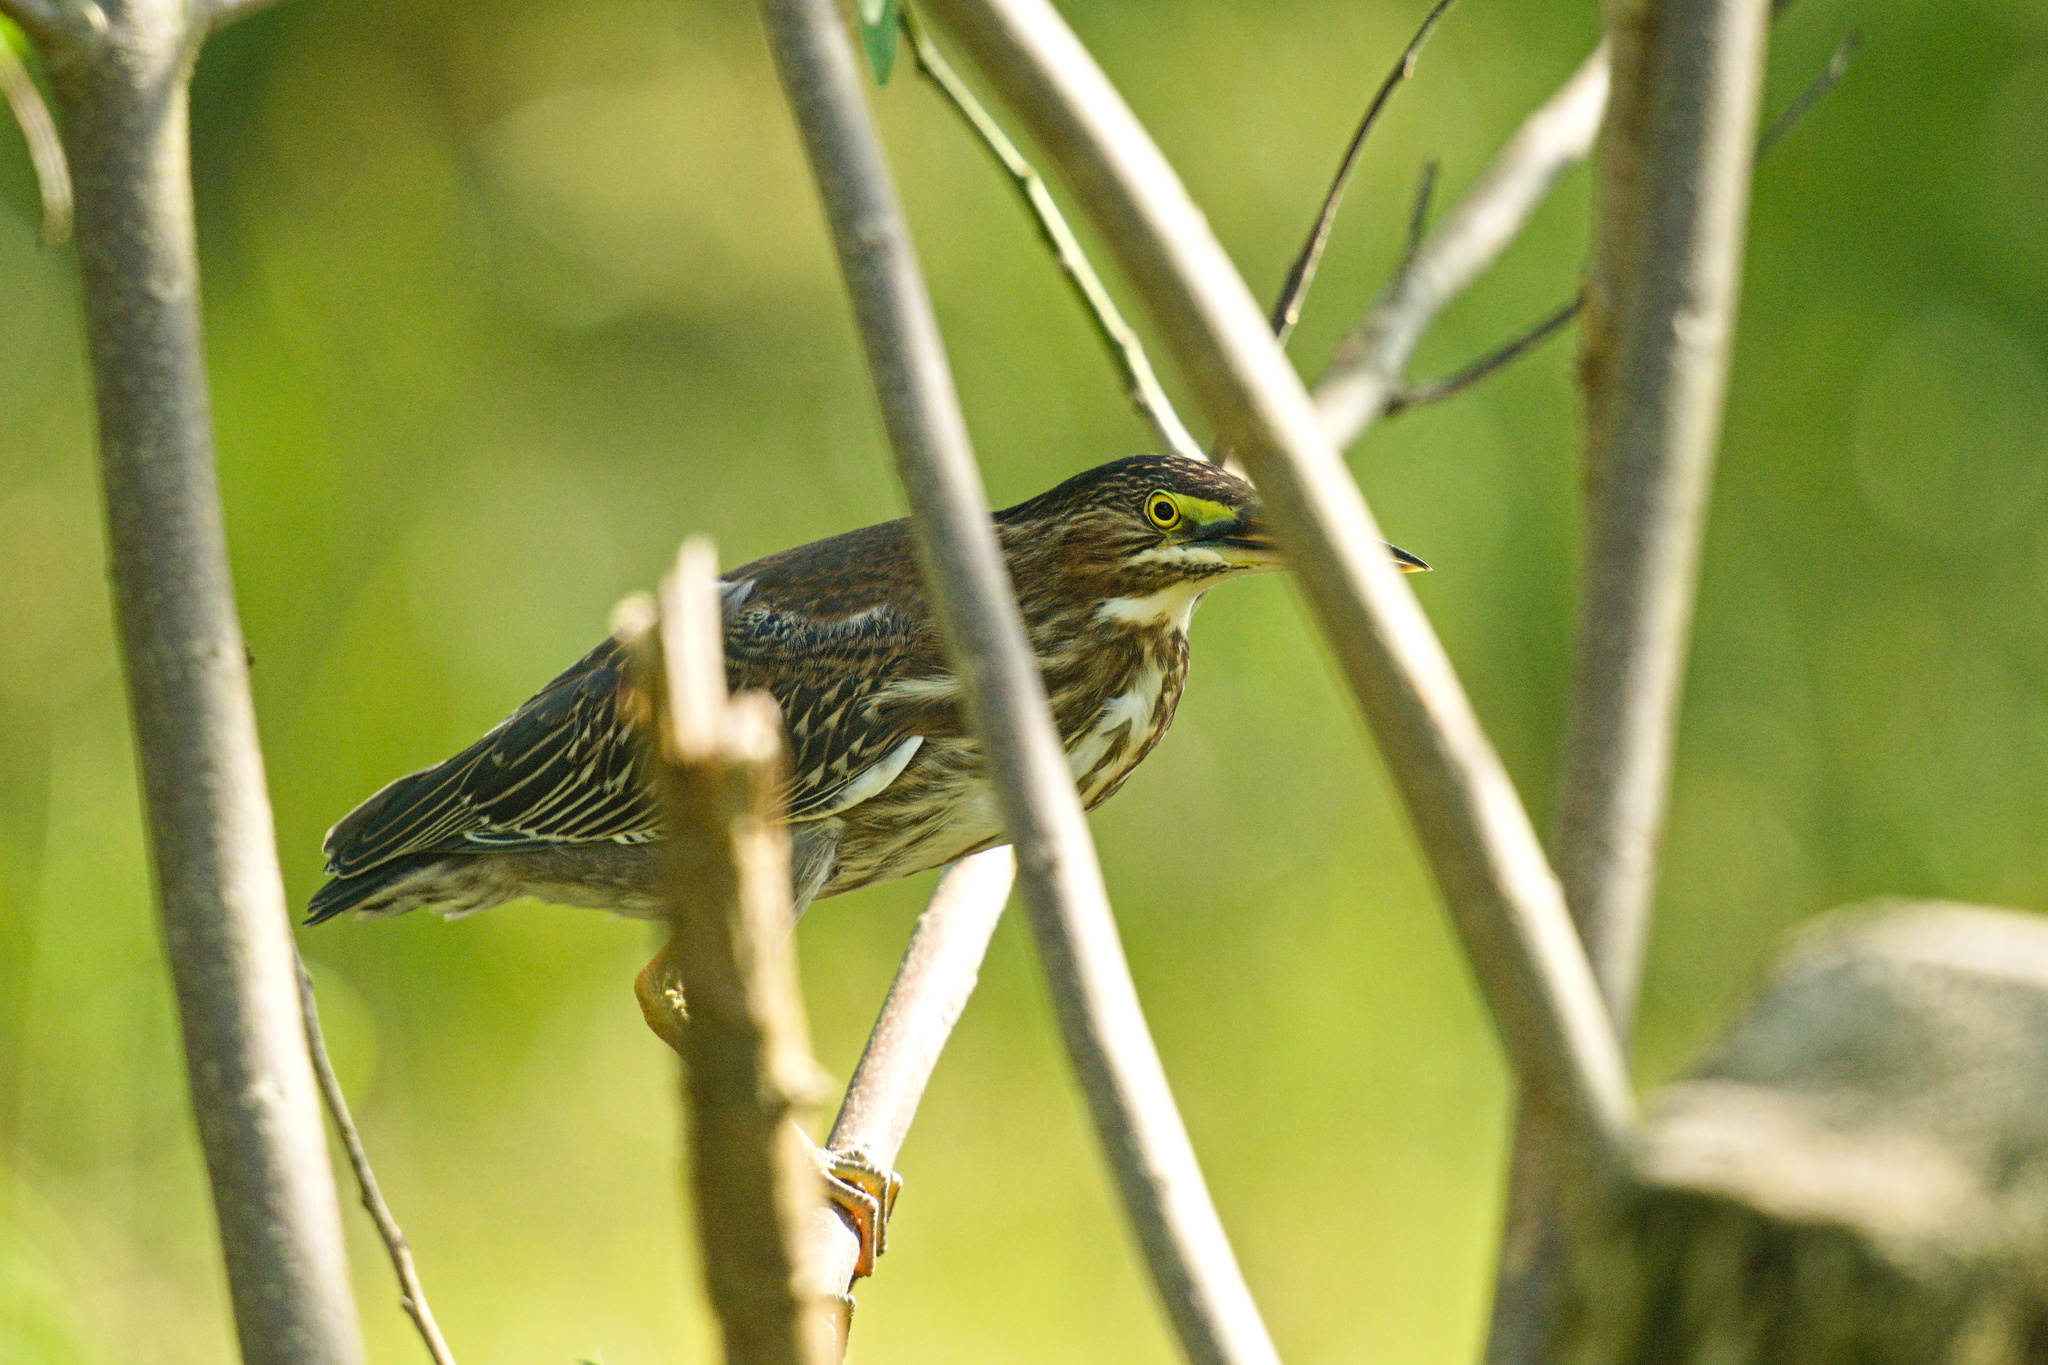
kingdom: Animalia
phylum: Chordata
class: Aves
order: Pelecaniformes
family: Ardeidae
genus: Butorides
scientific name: Butorides virescens
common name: Green heron
